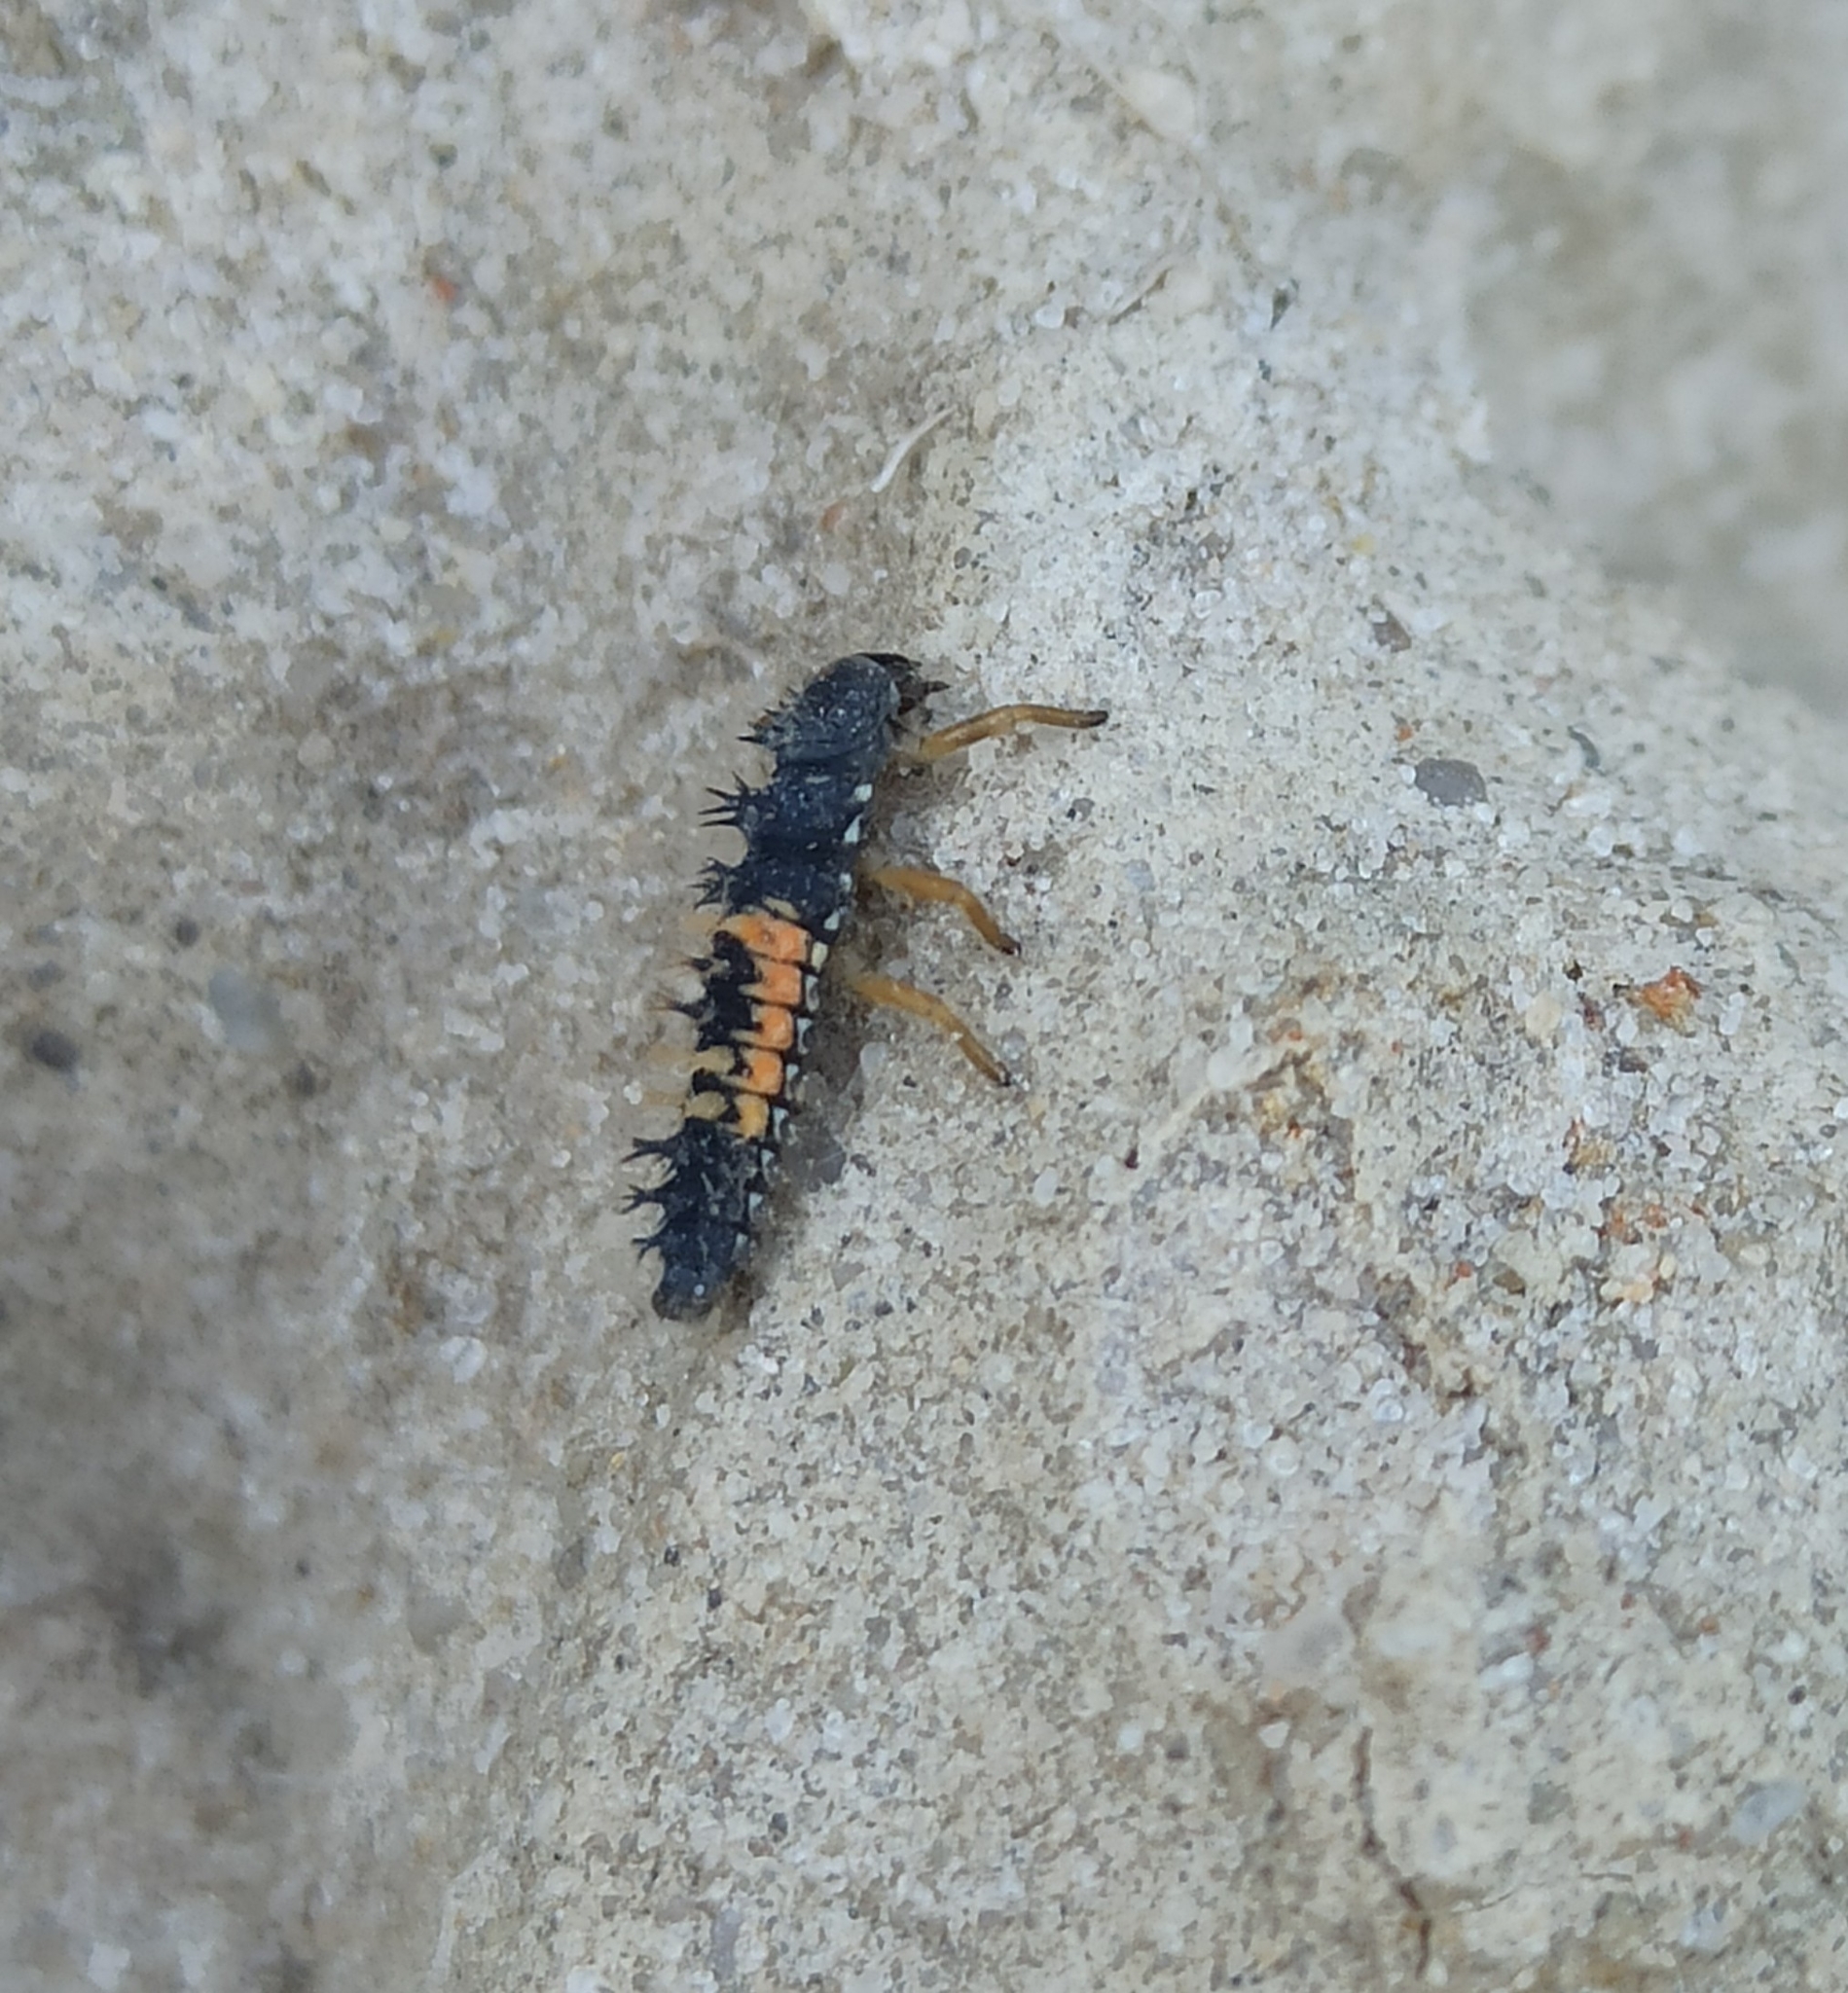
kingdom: Animalia
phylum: Arthropoda
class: Insecta
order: Coleoptera
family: Coccinellidae
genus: Harmonia
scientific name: Harmonia axyridis
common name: Harlequin ladybird
